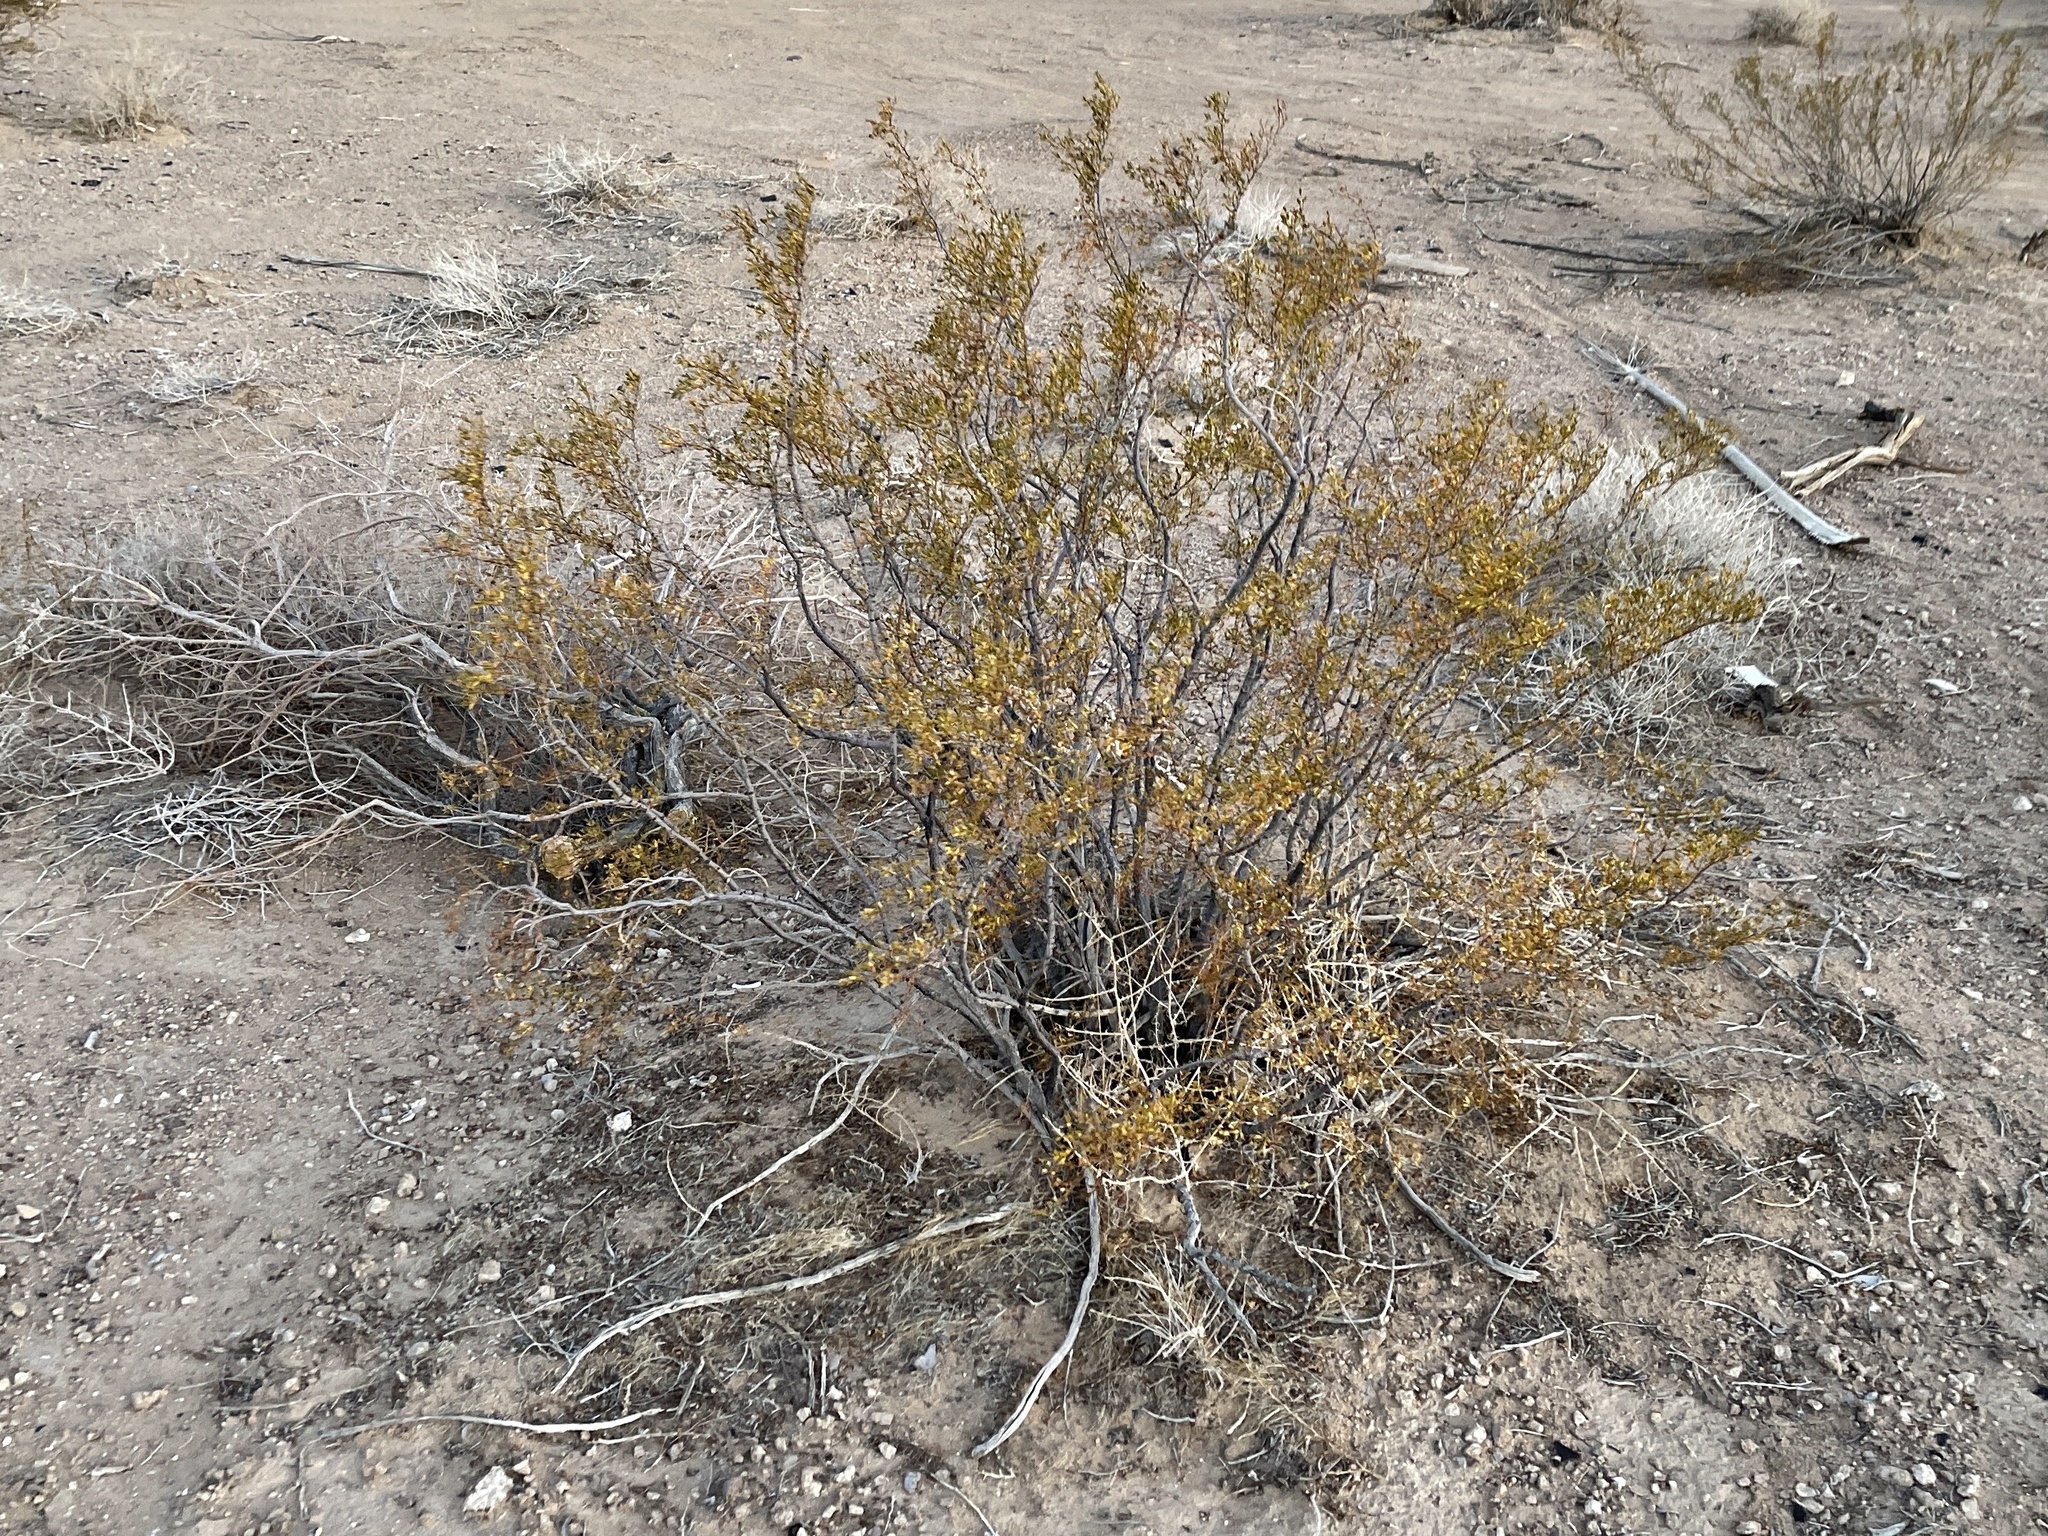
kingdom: Plantae
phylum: Tracheophyta
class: Magnoliopsida
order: Zygophyllales
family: Zygophyllaceae
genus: Larrea
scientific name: Larrea tridentata
